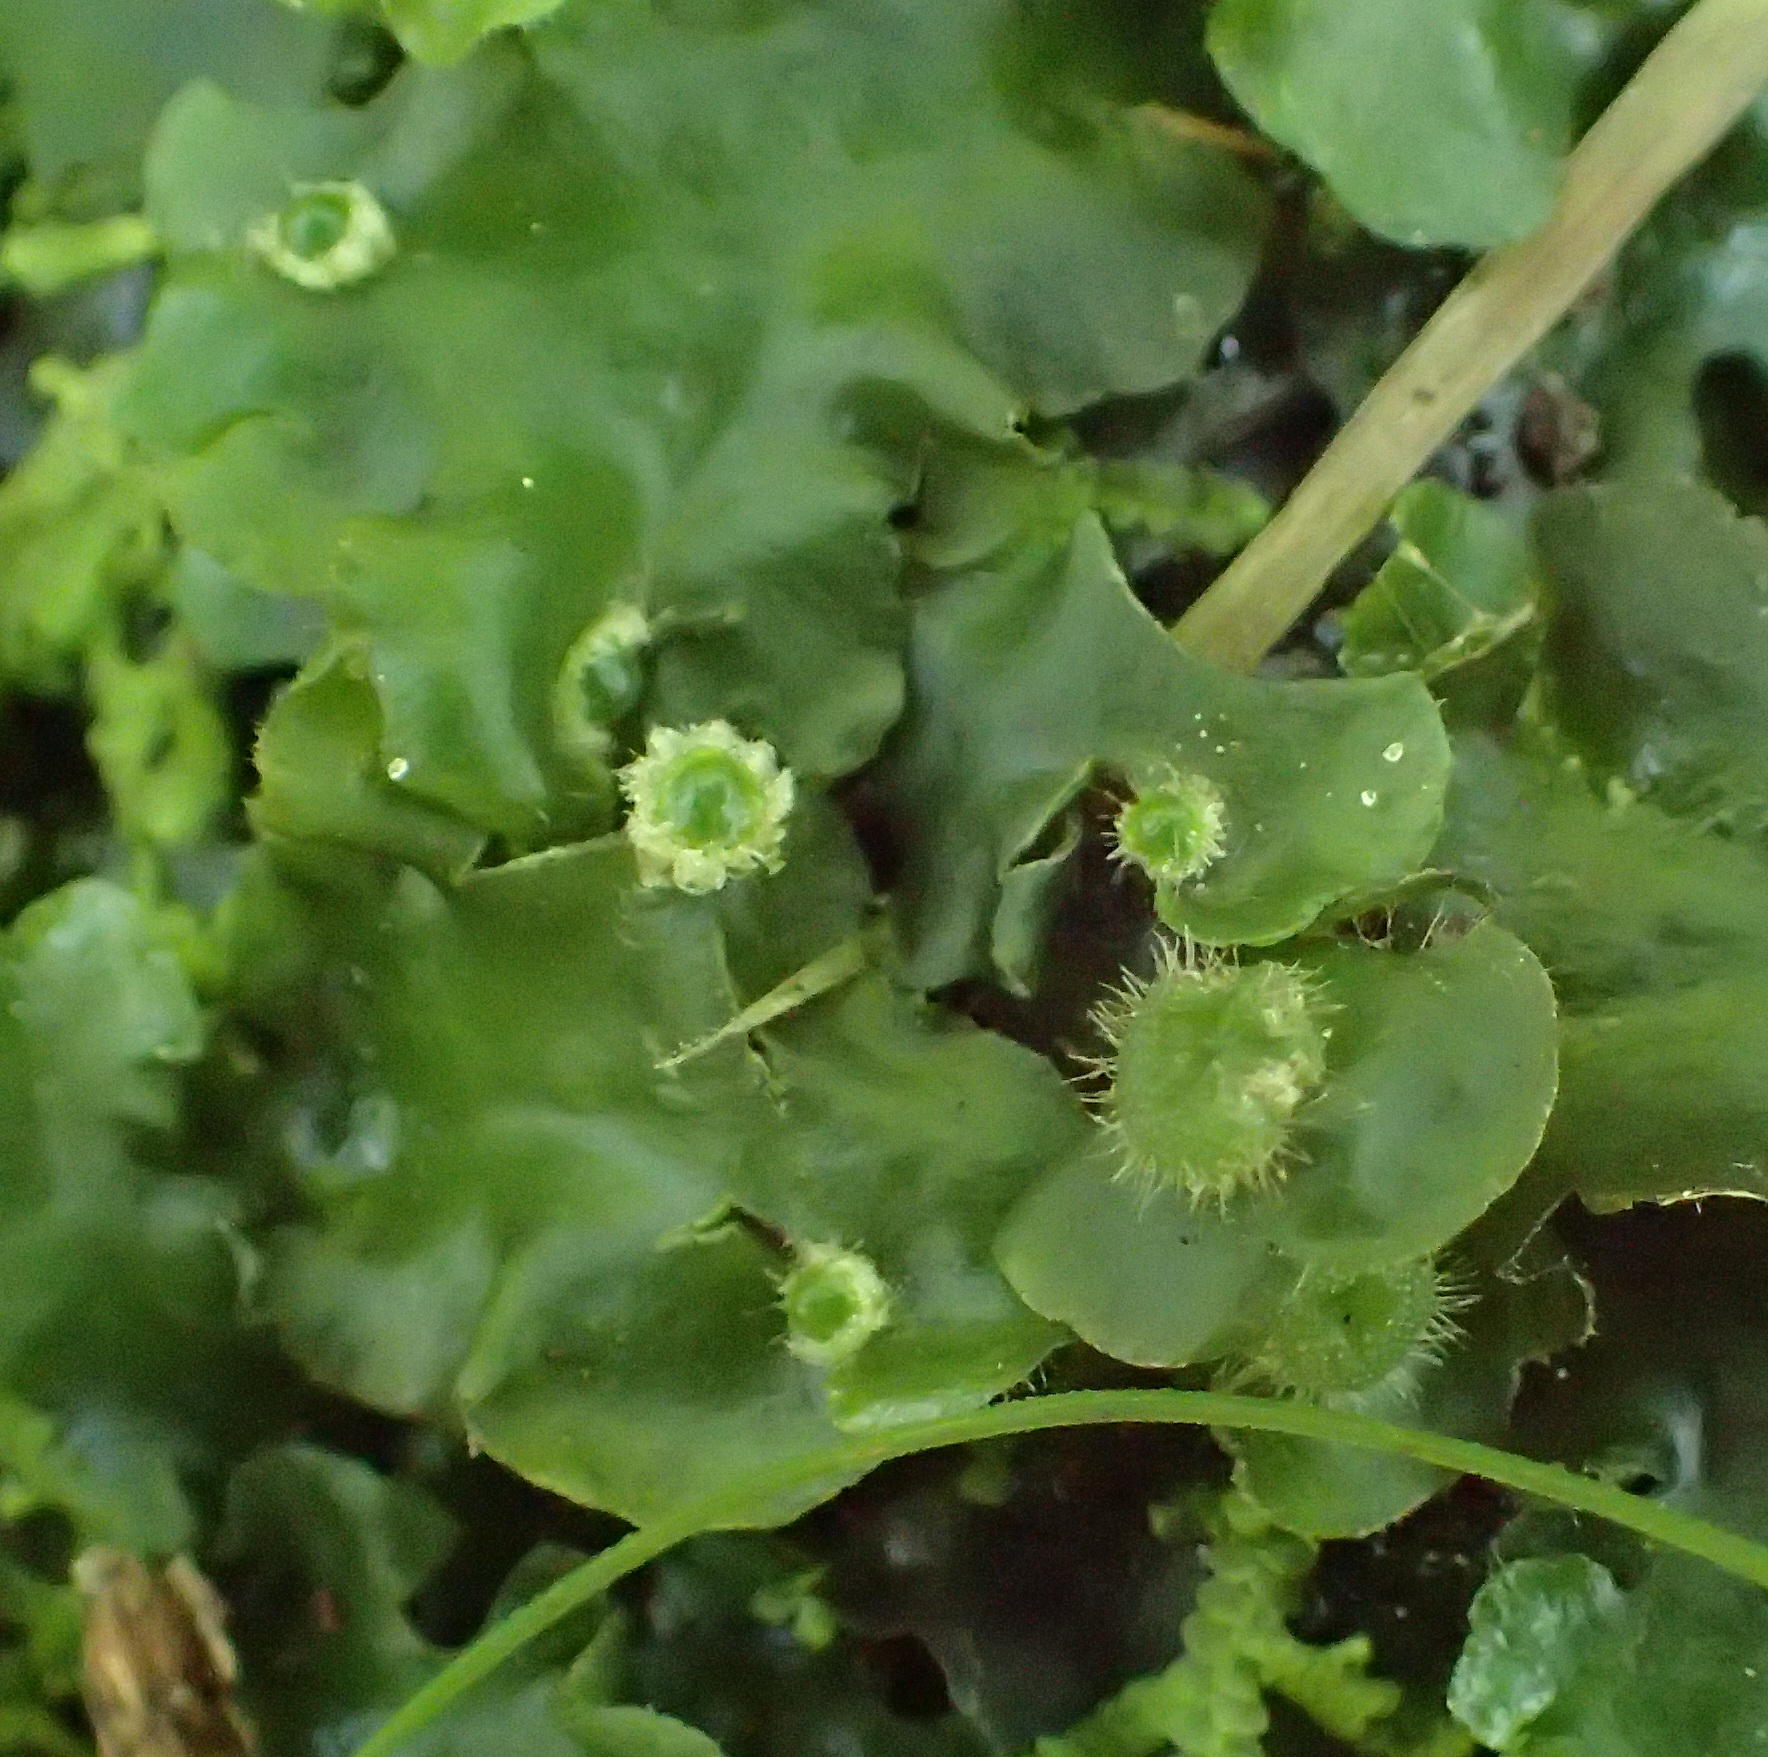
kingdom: Plantae
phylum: Marchantiophyta
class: Marchantiopsida
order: Marchantiales
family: Dumortieraceae
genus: Dumortiera
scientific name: Dumortiera hirsuta
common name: Dumortier's liverwort
